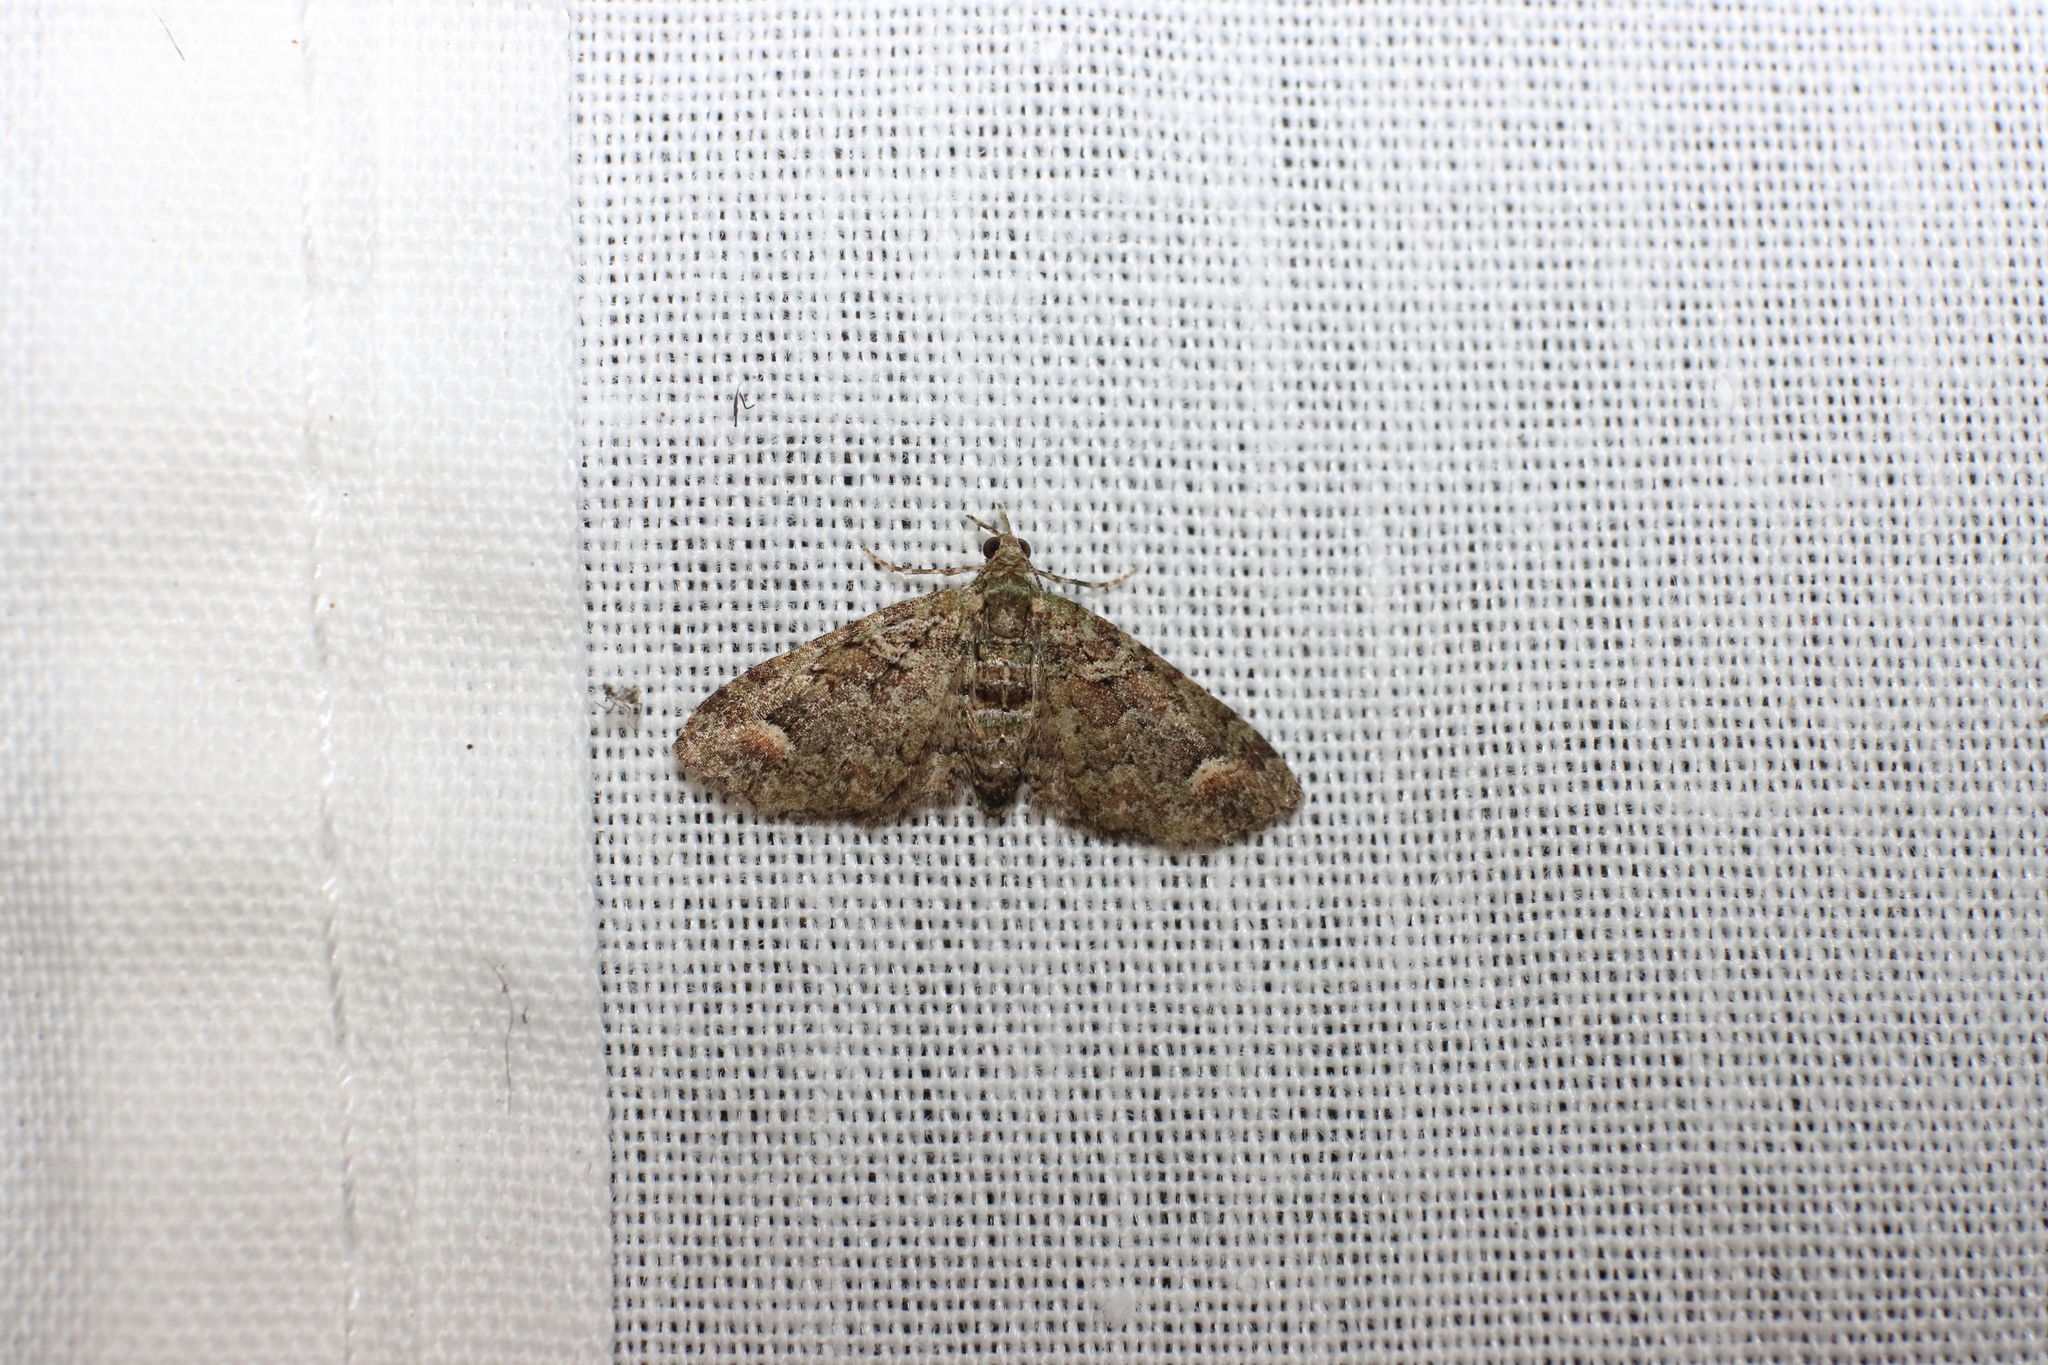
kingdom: Animalia
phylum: Arthropoda
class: Insecta
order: Lepidoptera
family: Geometridae
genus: Idaea
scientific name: Idaea mutanda
